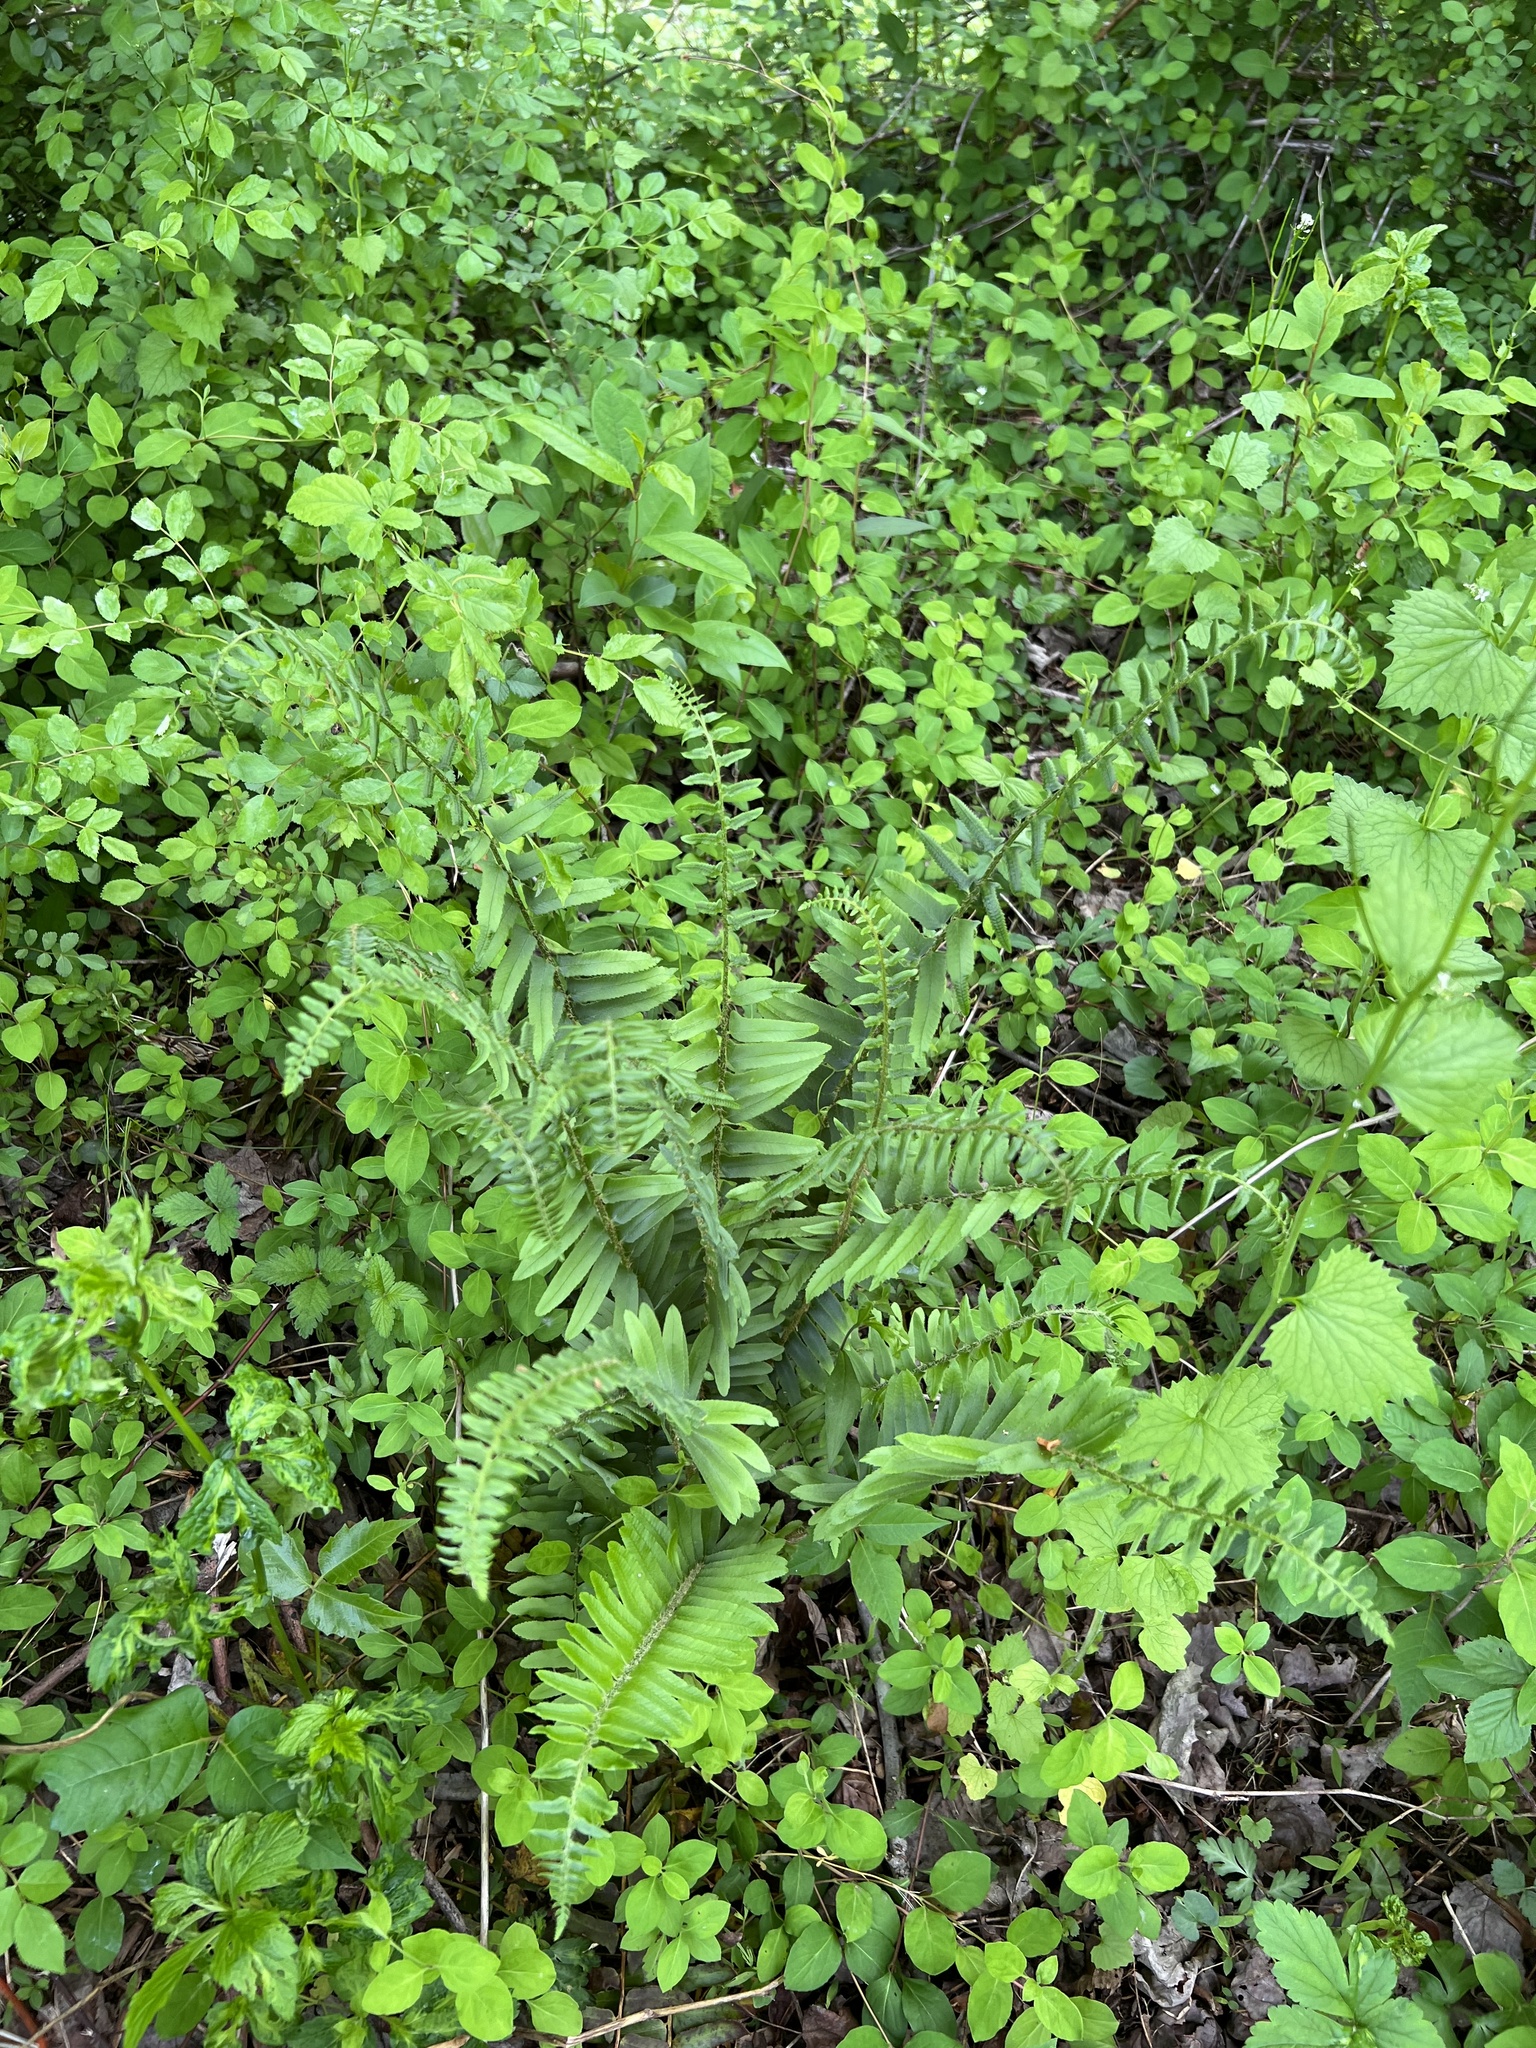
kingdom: Plantae
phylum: Tracheophyta
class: Polypodiopsida
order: Polypodiales
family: Dryopteridaceae
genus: Polystichum
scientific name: Polystichum acrostichoides
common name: Christmas fern
